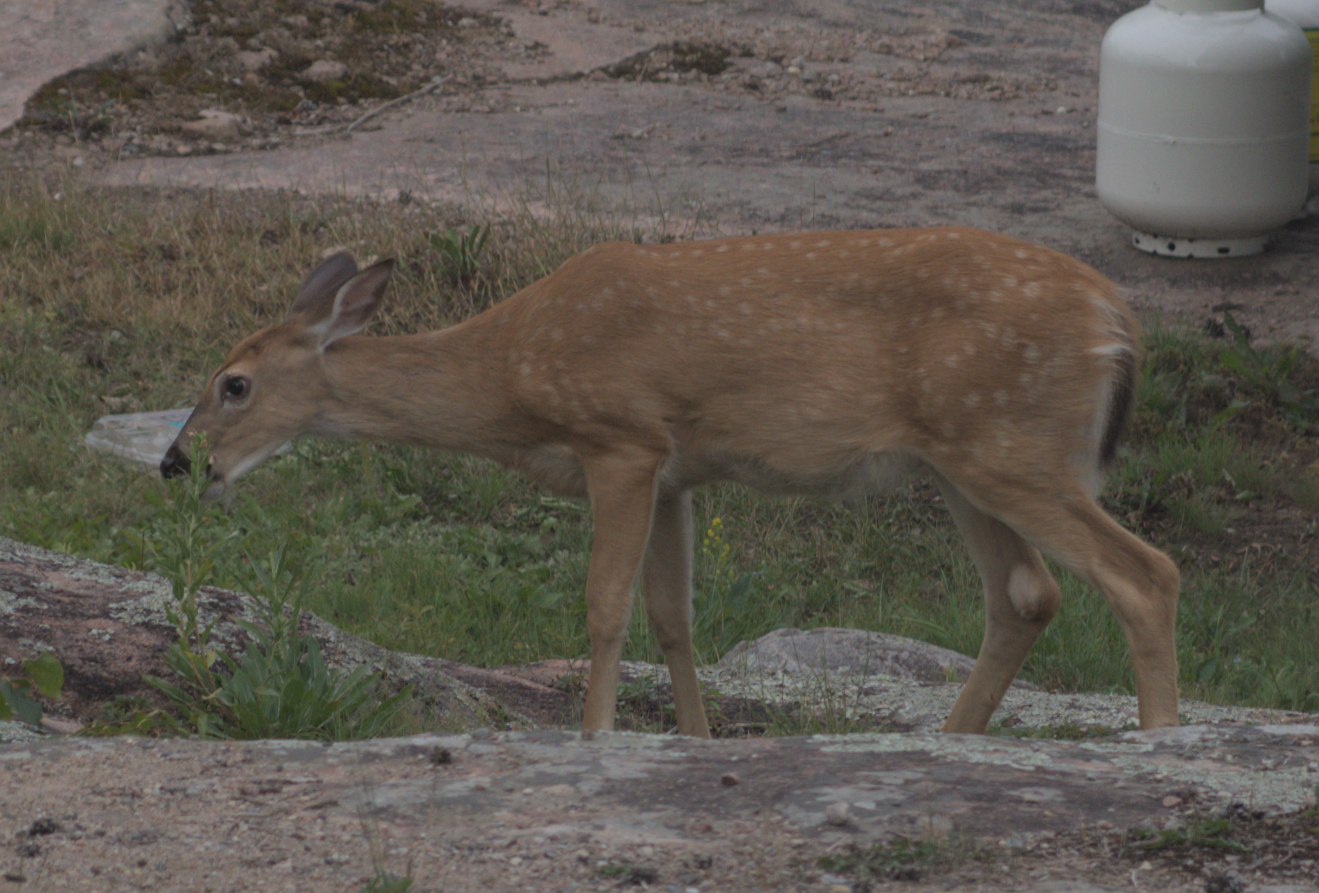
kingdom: Animalia
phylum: Chordata
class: Mammalia
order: Artiodactyla
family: Cervidae
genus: Odocoileus
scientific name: Odocoileus virginianus
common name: White-tailed deer
